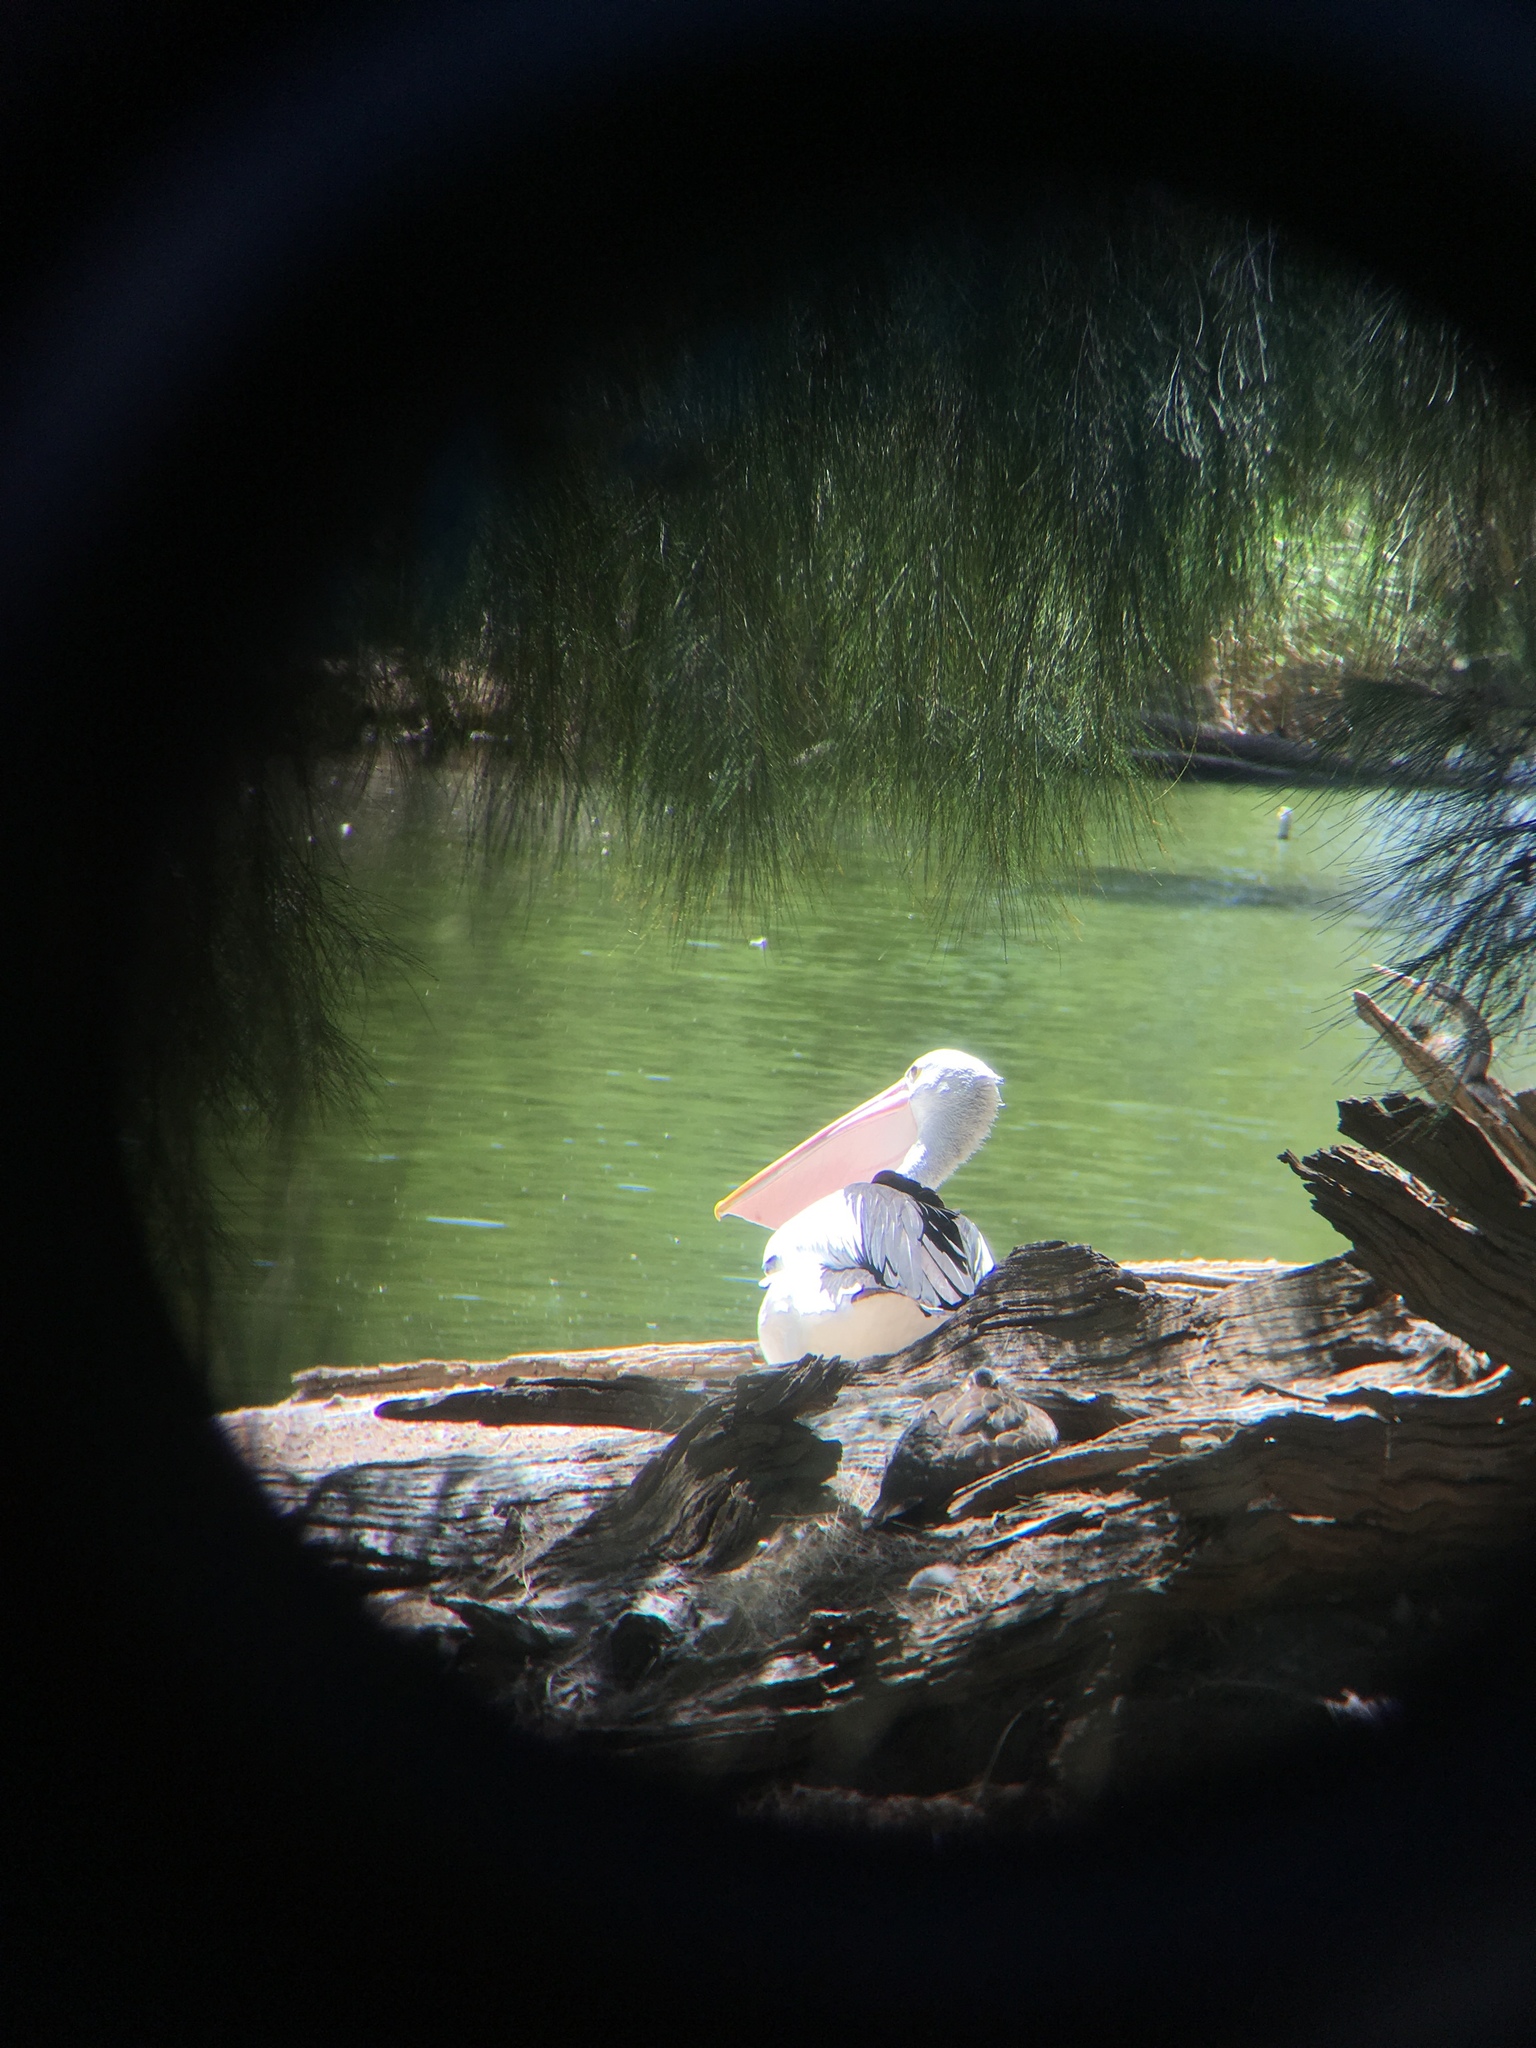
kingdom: Animalia
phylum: Chordata
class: Aves
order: Pelecaniformes
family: Pelecanidae
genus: Pelecanus
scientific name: Pelecanus conspicillatus
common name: Australian pelican
